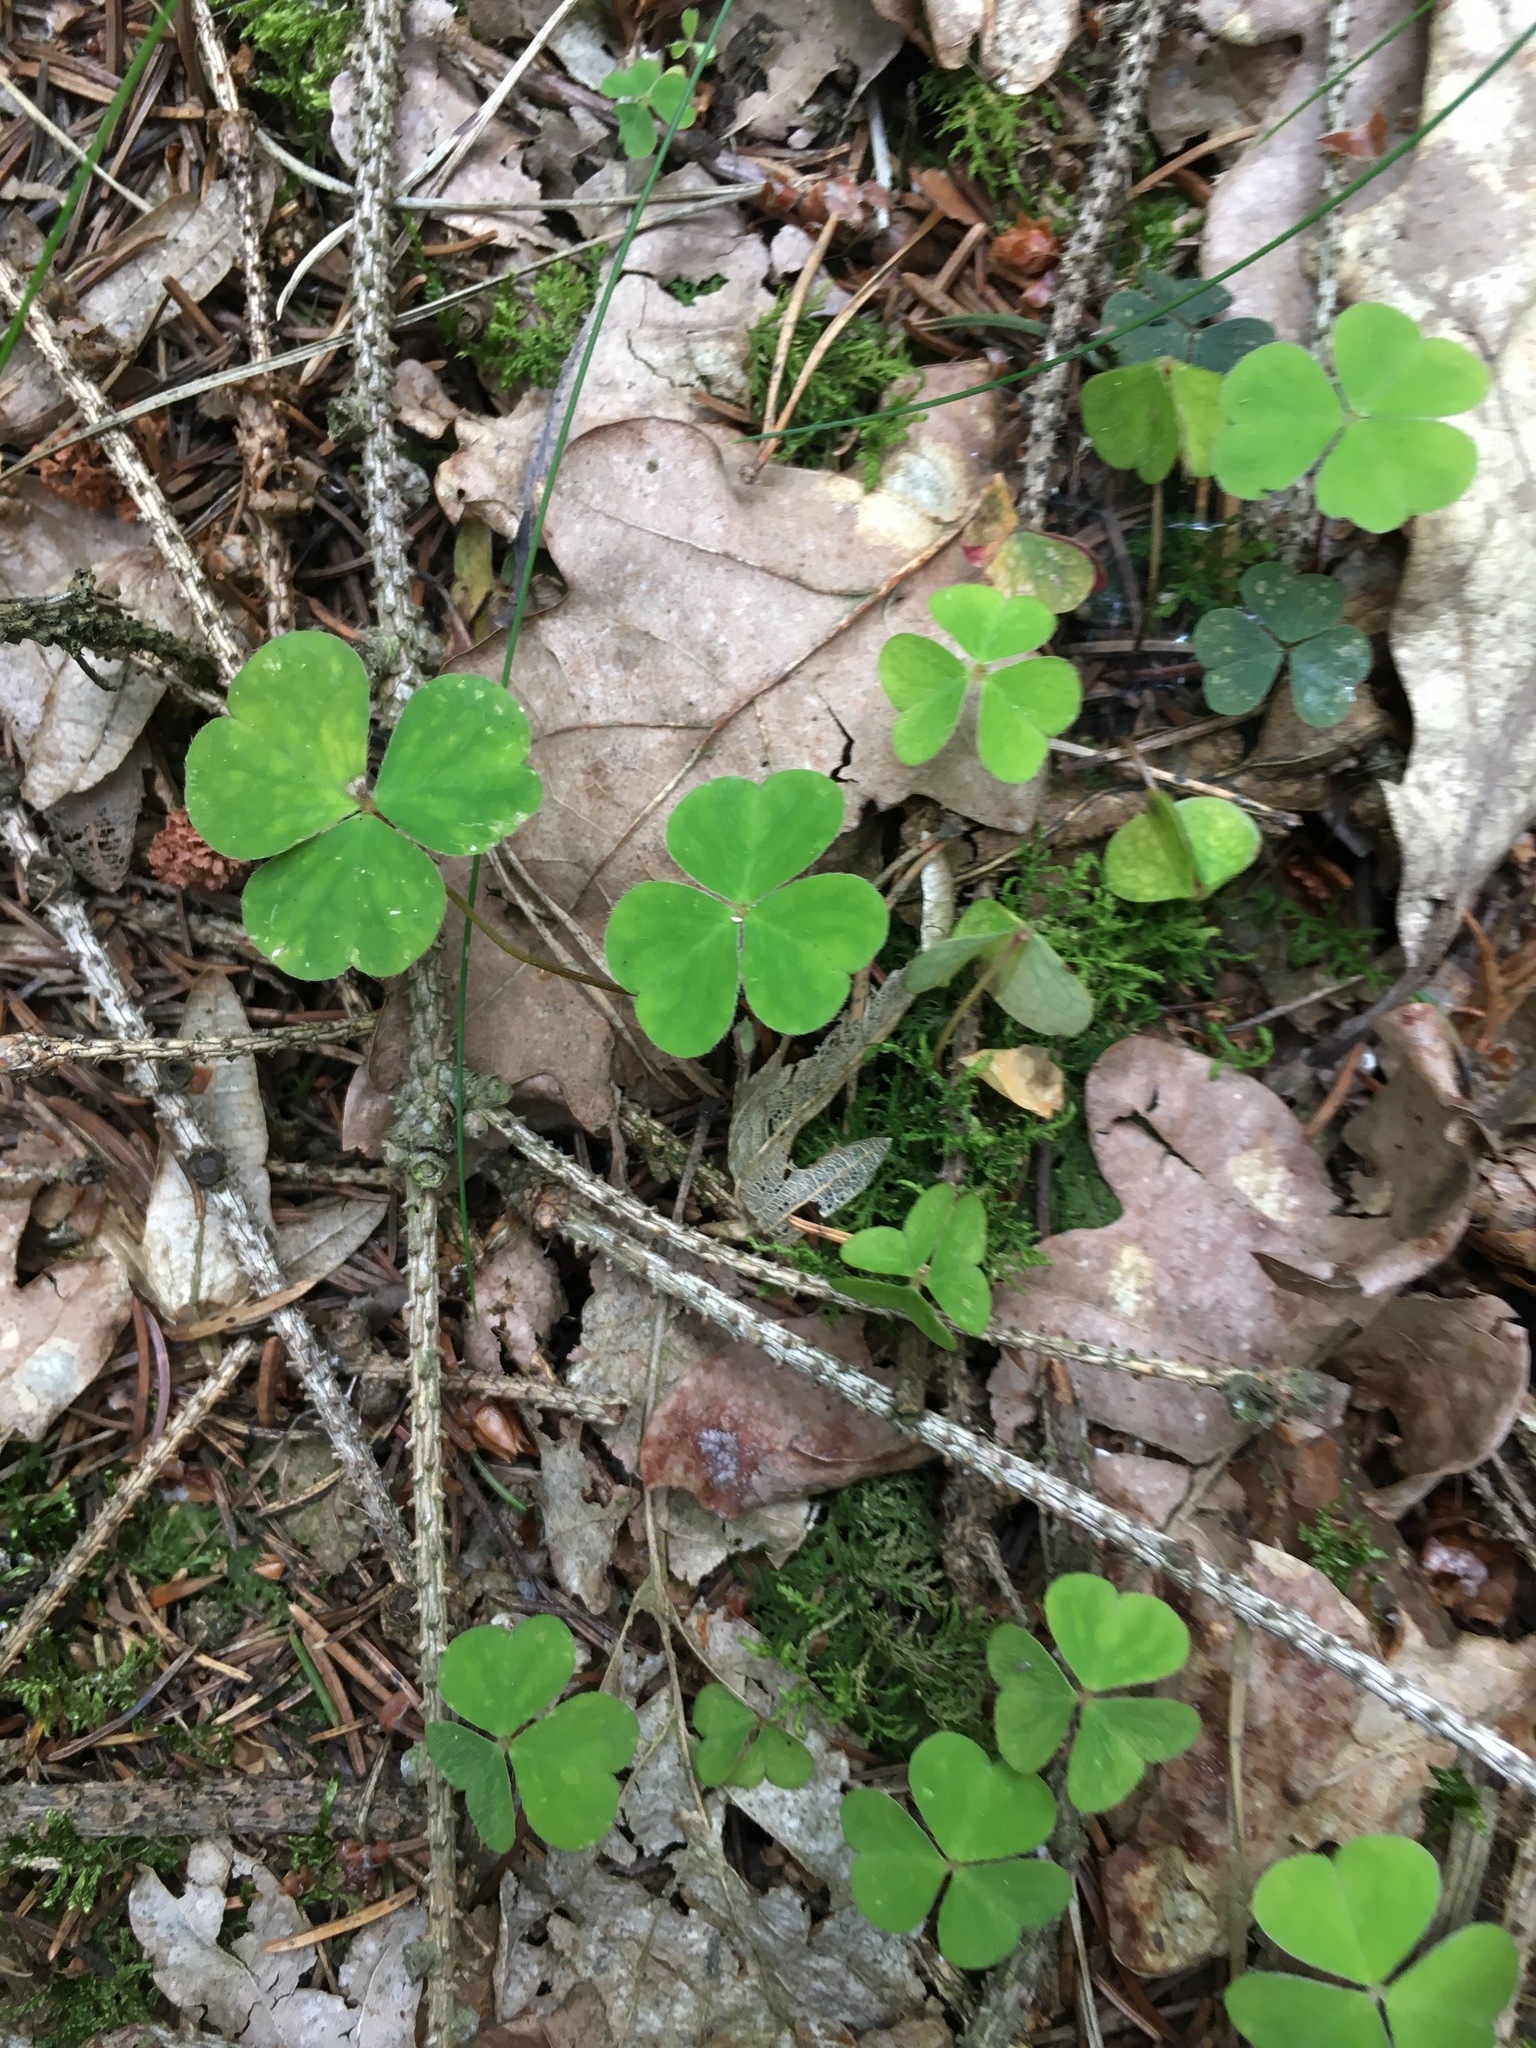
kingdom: Plantae
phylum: Tracheophyta
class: Magnoliopsida
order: Oxalidales
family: Oxalidaceae
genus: Oxalis
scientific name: Oxalis acetosella
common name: Wood-sorrel
